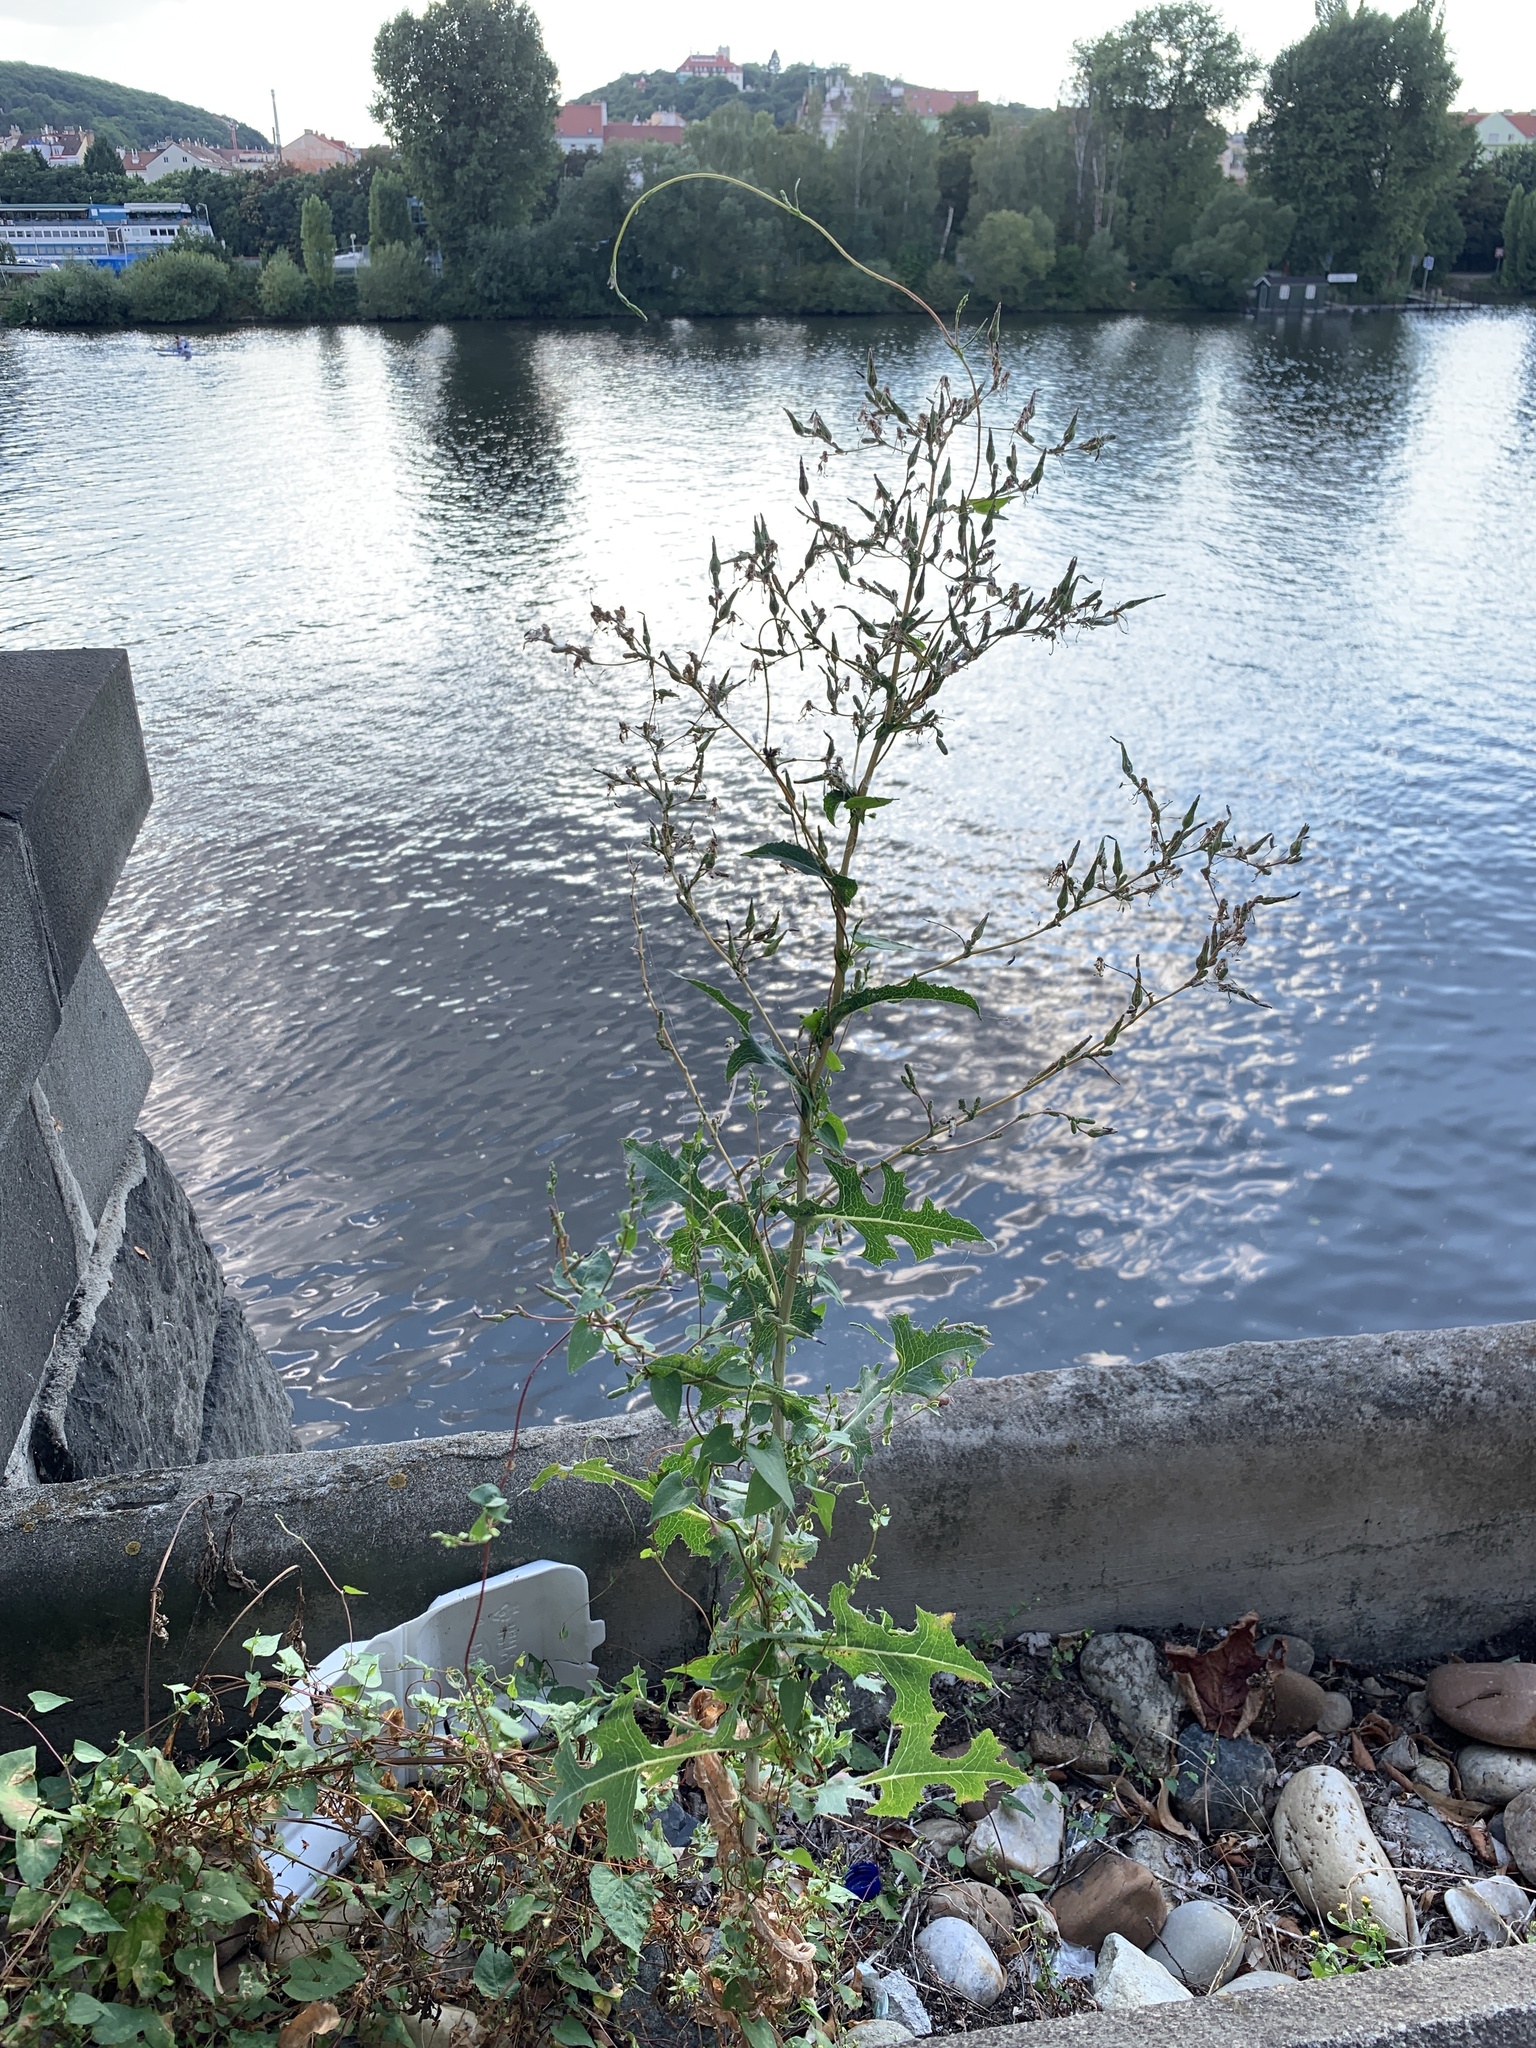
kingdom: Plantae
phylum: Tracheophyta
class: Magnoliopsida
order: Asterales
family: Asteraceae
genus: Lactuca
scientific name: Lactuca serriola
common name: Prickly lettuce
